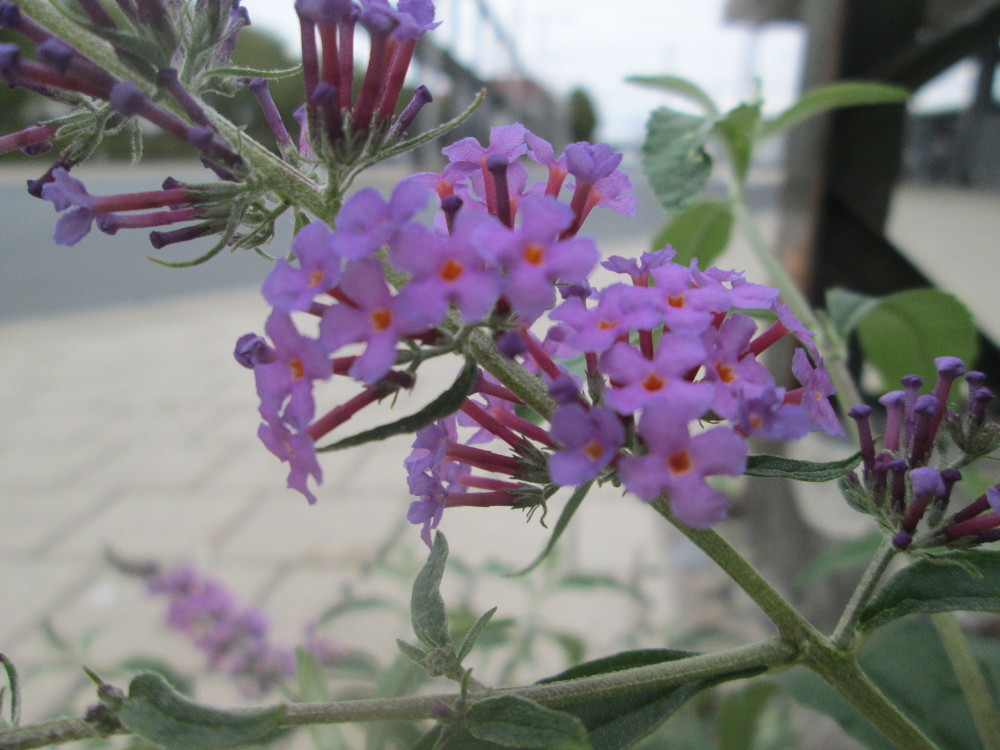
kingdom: Plantae
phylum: Tracheophyta
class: Magnoliopsida
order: Lamiales
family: Scrophulariaceae
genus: Buddleja
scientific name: Buddleja davidii
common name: Butterfly-bush
